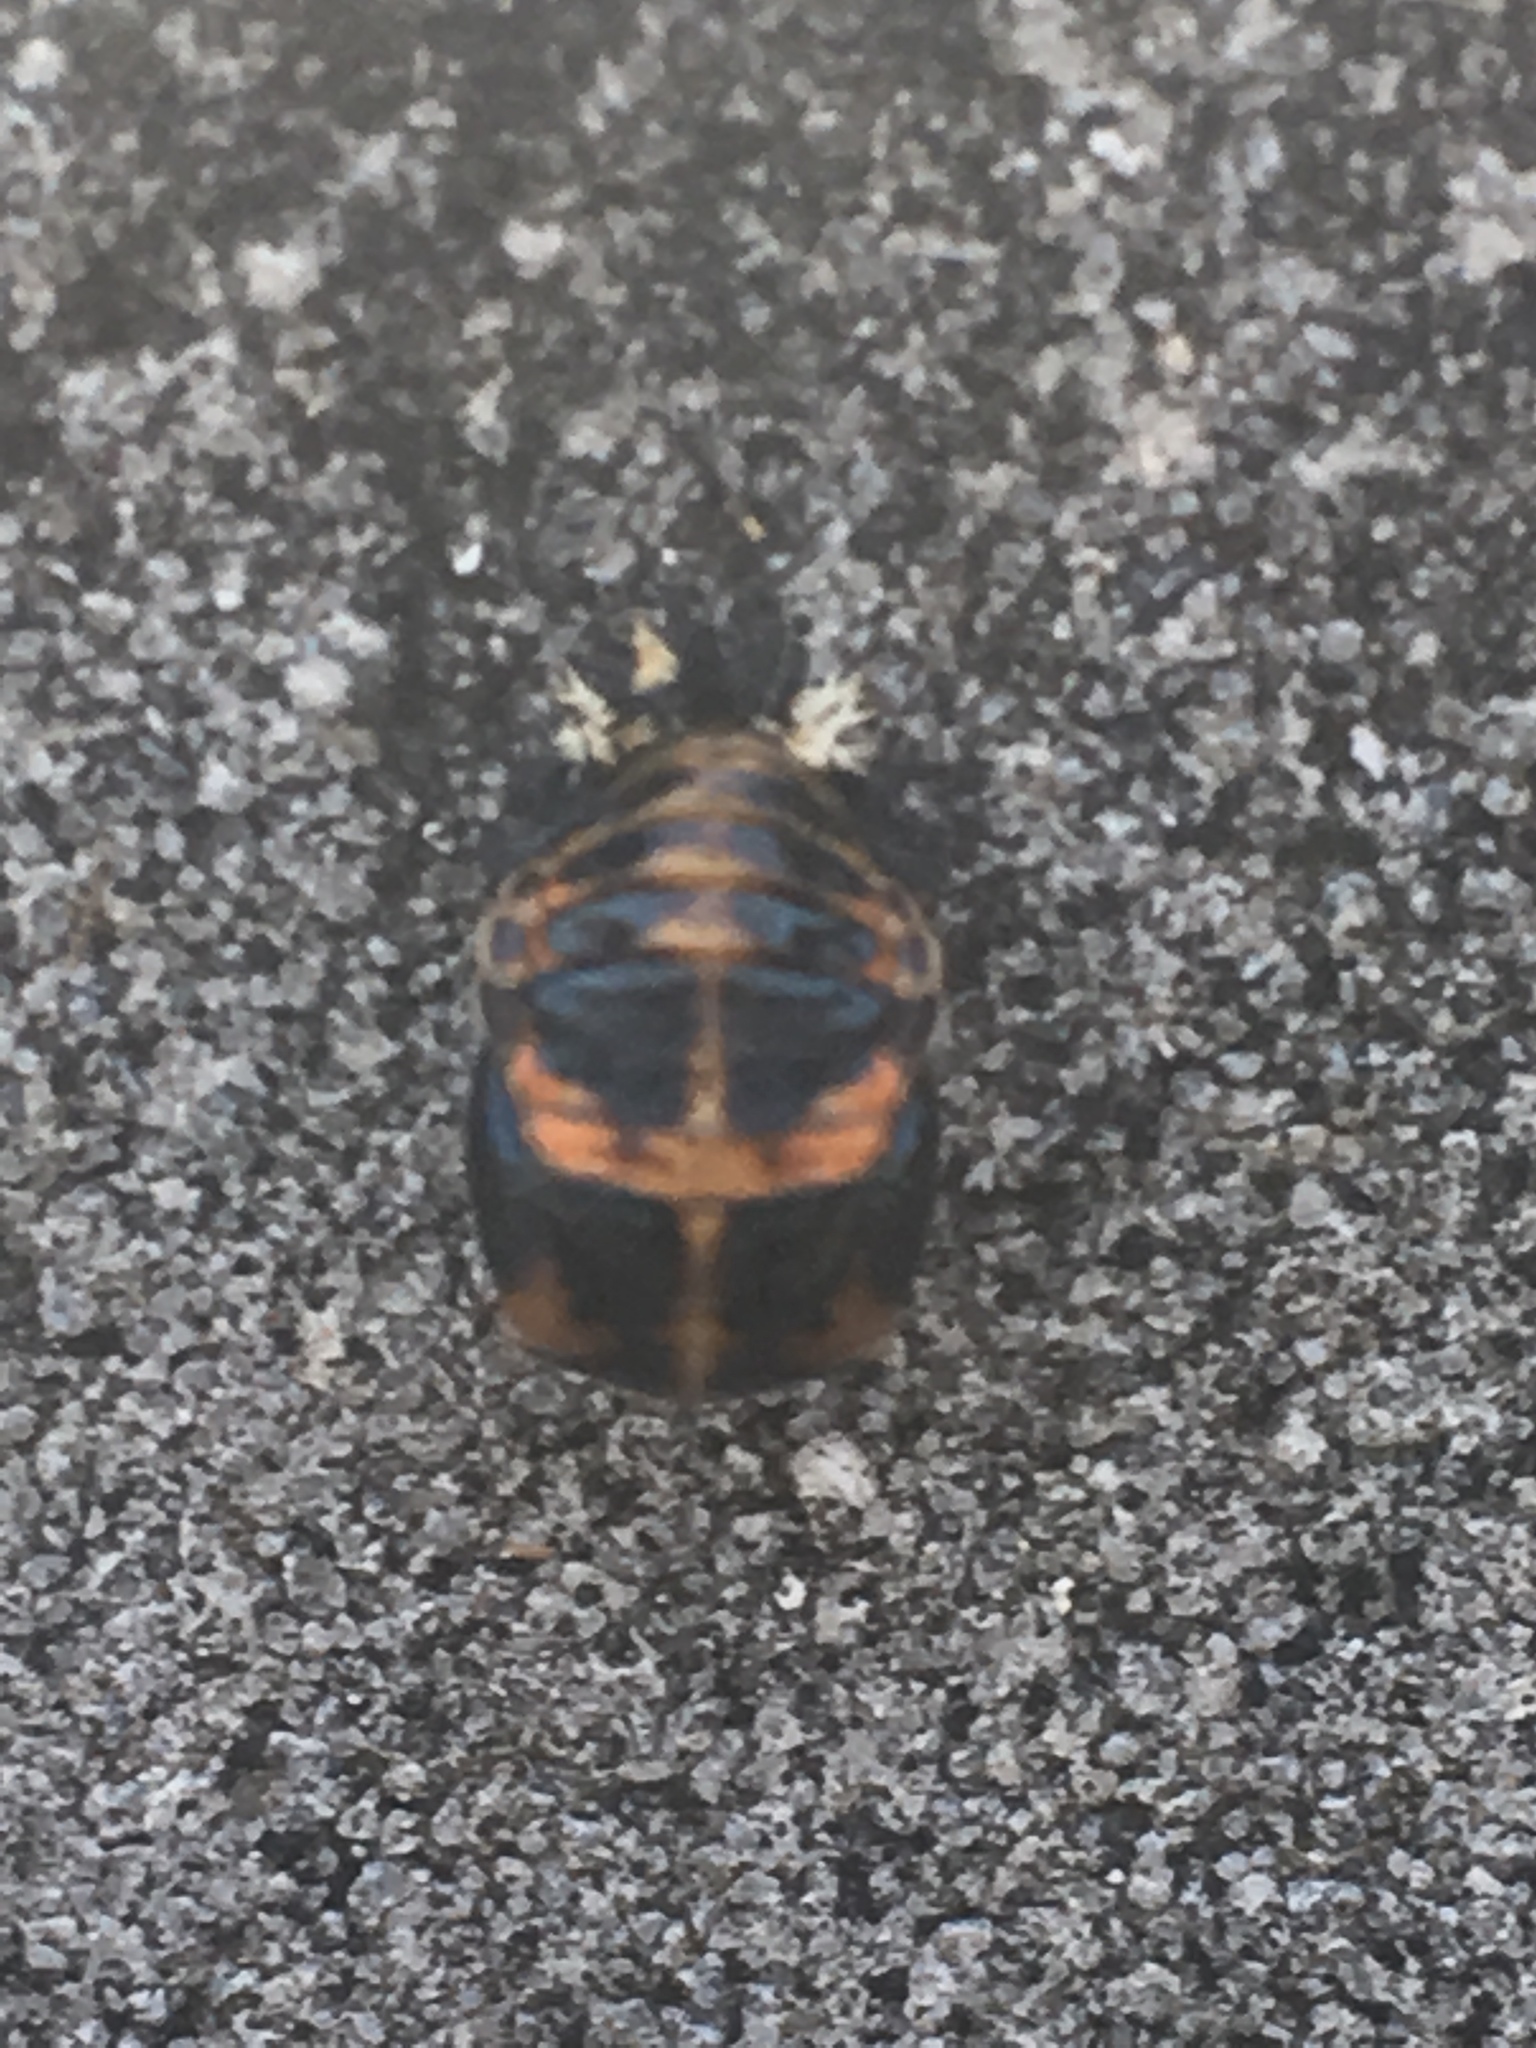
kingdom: Animalia
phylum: Arthropoda
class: Insecta
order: Coleoptera
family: Coccinellidae
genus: Harmonia
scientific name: Harmonia axyridis
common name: Harlequin ladybird
